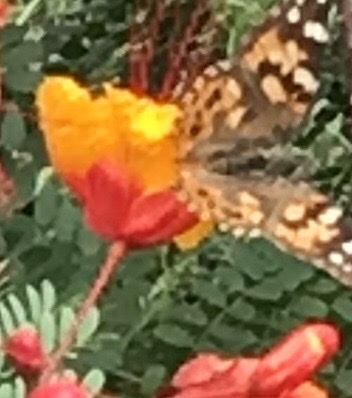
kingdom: Animalia
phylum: Arthropoda
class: Insecta
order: Lepidoptera
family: Nymphalidae
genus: Vanessa
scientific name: Vanessa cardui
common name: Painted lady
